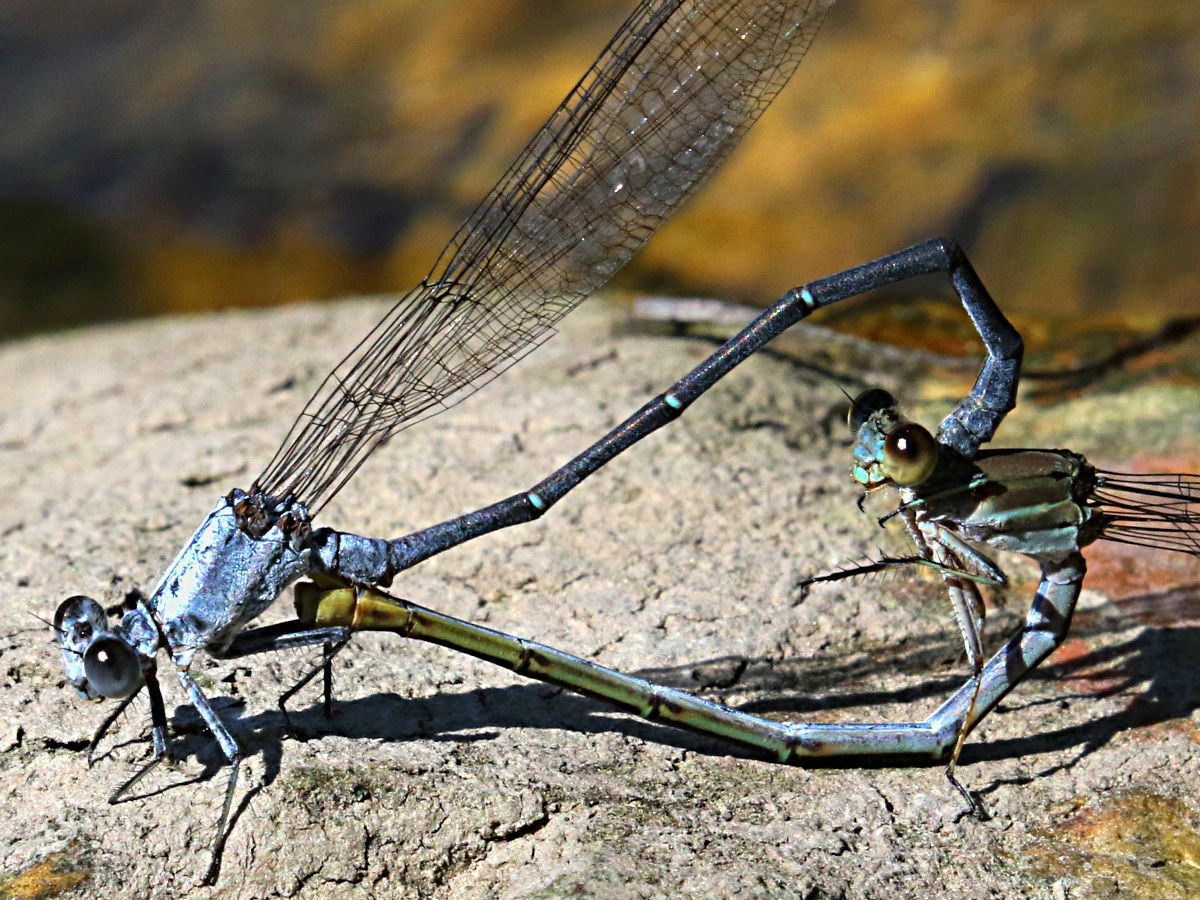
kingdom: Animalia
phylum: Arthropoda
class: Insecta
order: Odonata
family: Coenagrionidae
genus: Argia
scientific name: Argia moesta
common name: Powdered dancer
